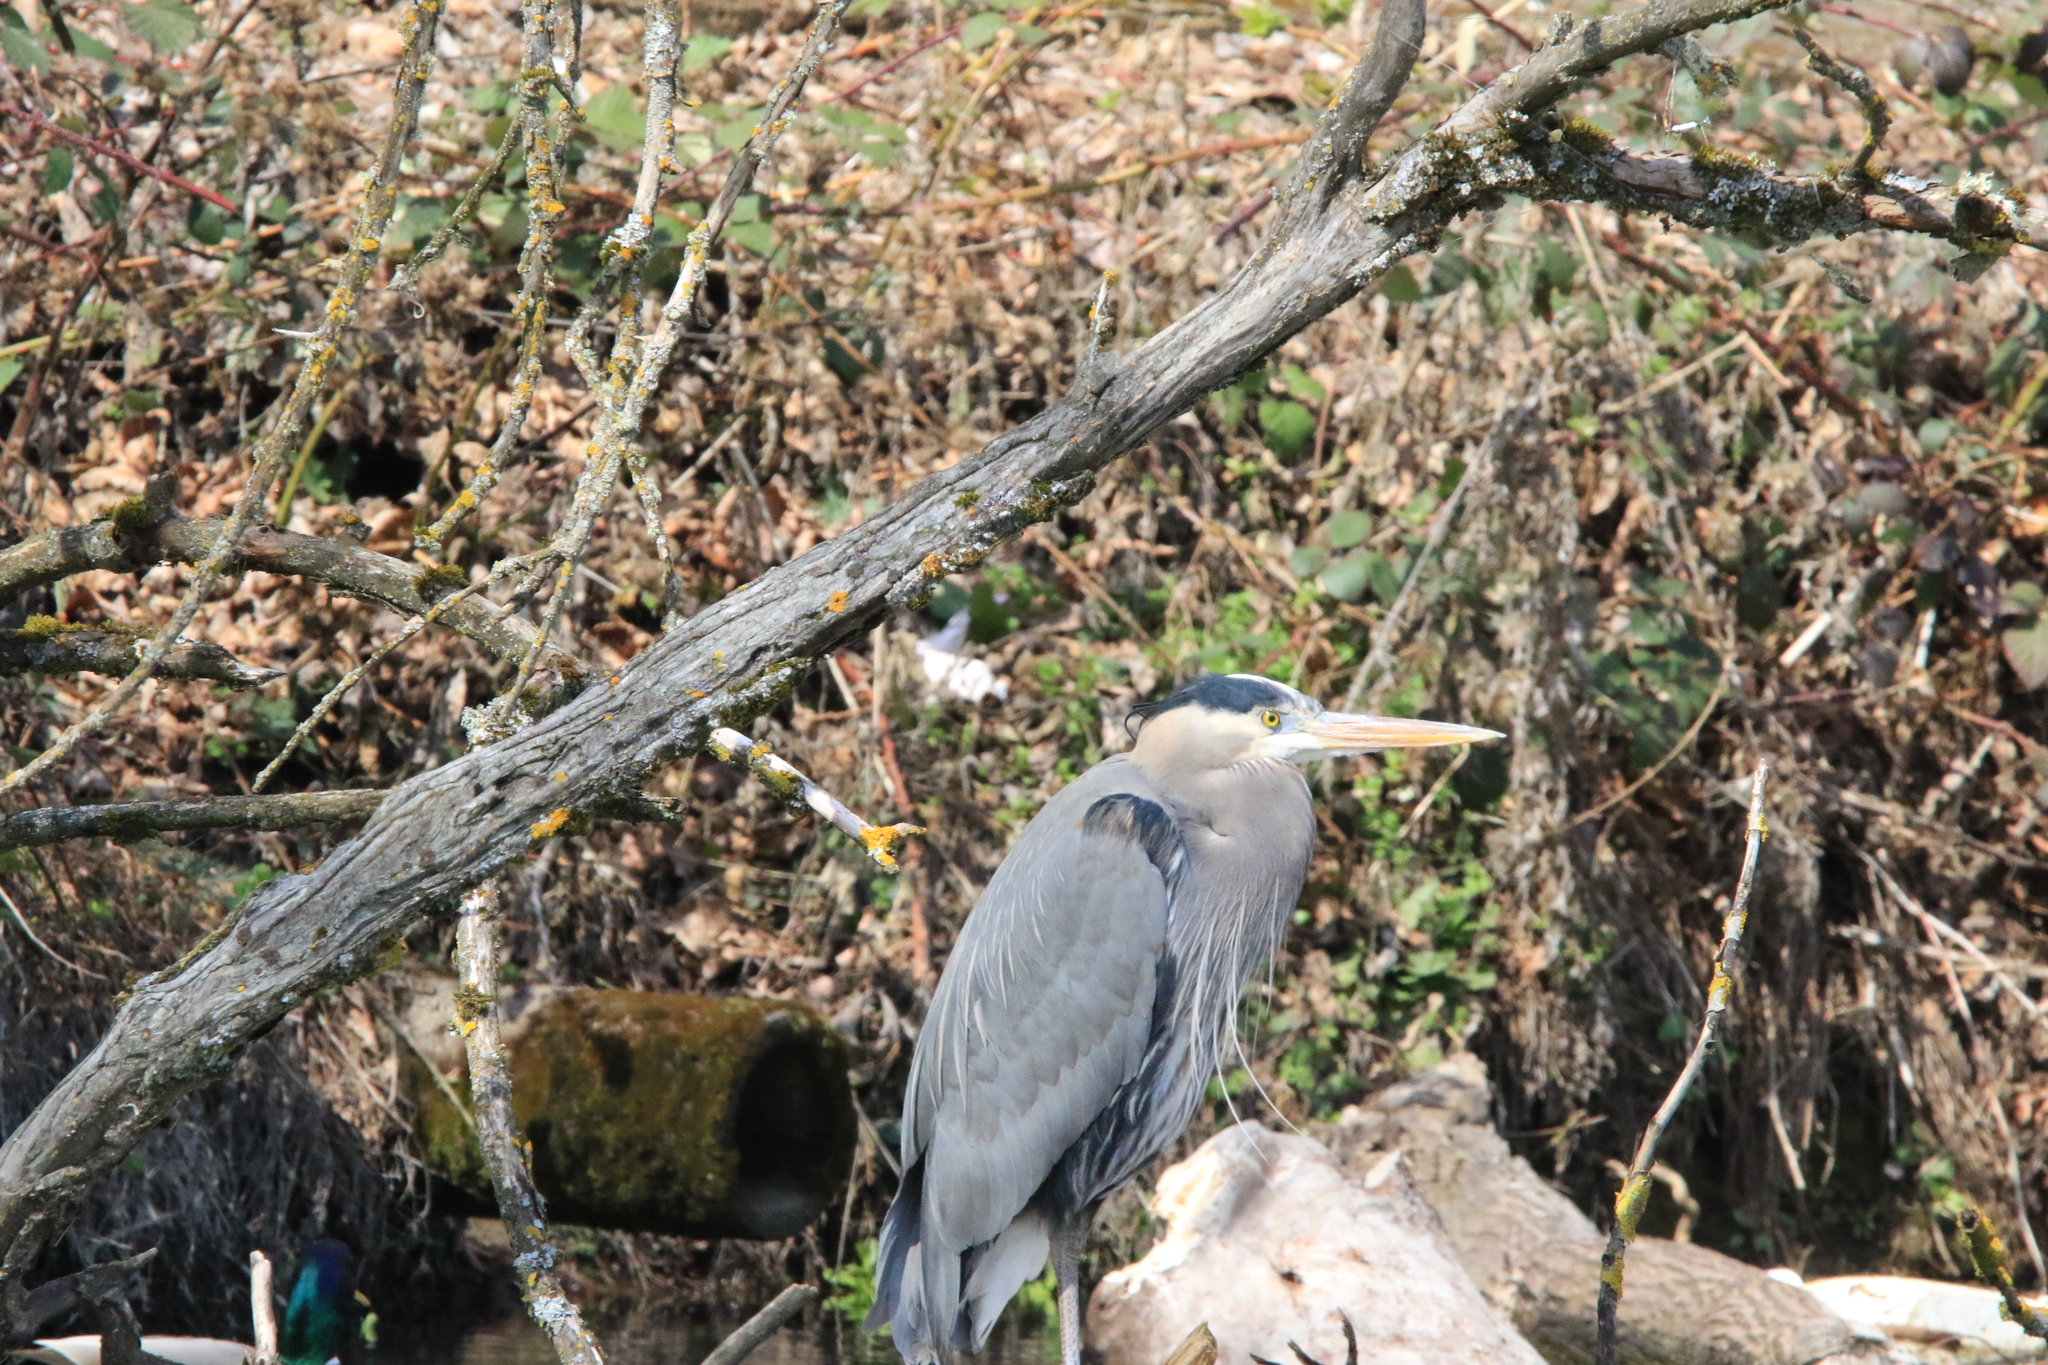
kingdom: Animalia
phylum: Chordata
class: Aves
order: Pelecaniformes
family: Ardeidae
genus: Ardea
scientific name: Ardea herodias
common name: Great blue heron
